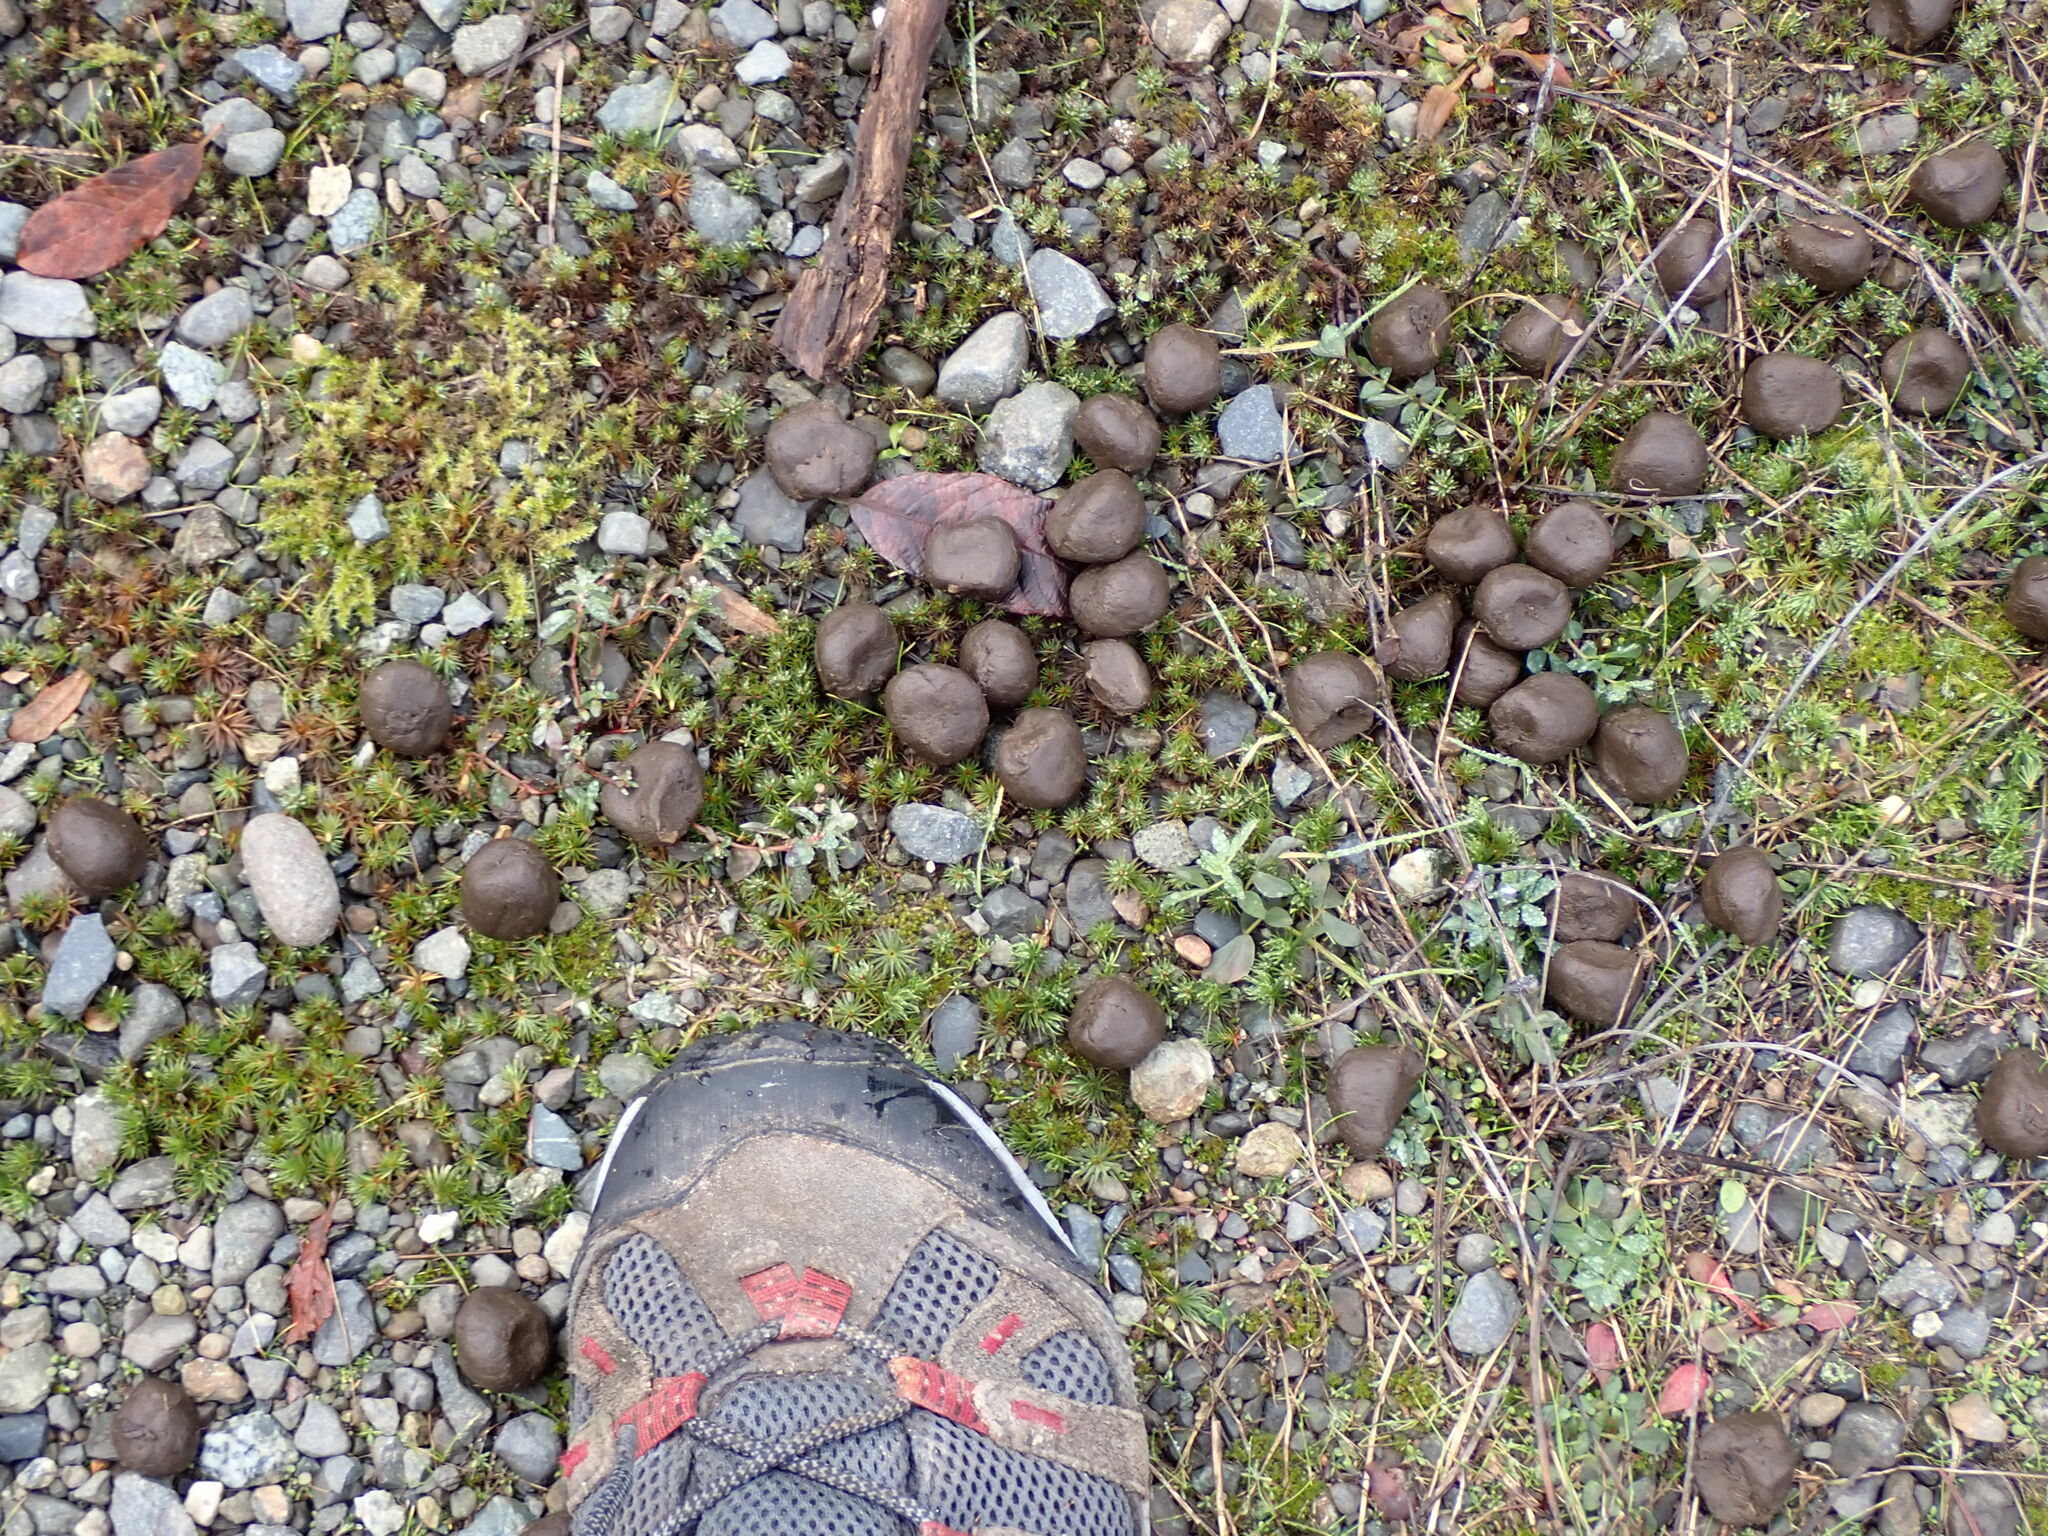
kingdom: Animalia
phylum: Chordata
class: Mammalia
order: Artiodactyla
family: Cervidae
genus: Cervus
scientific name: Cervus elaphus
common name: Red deer
